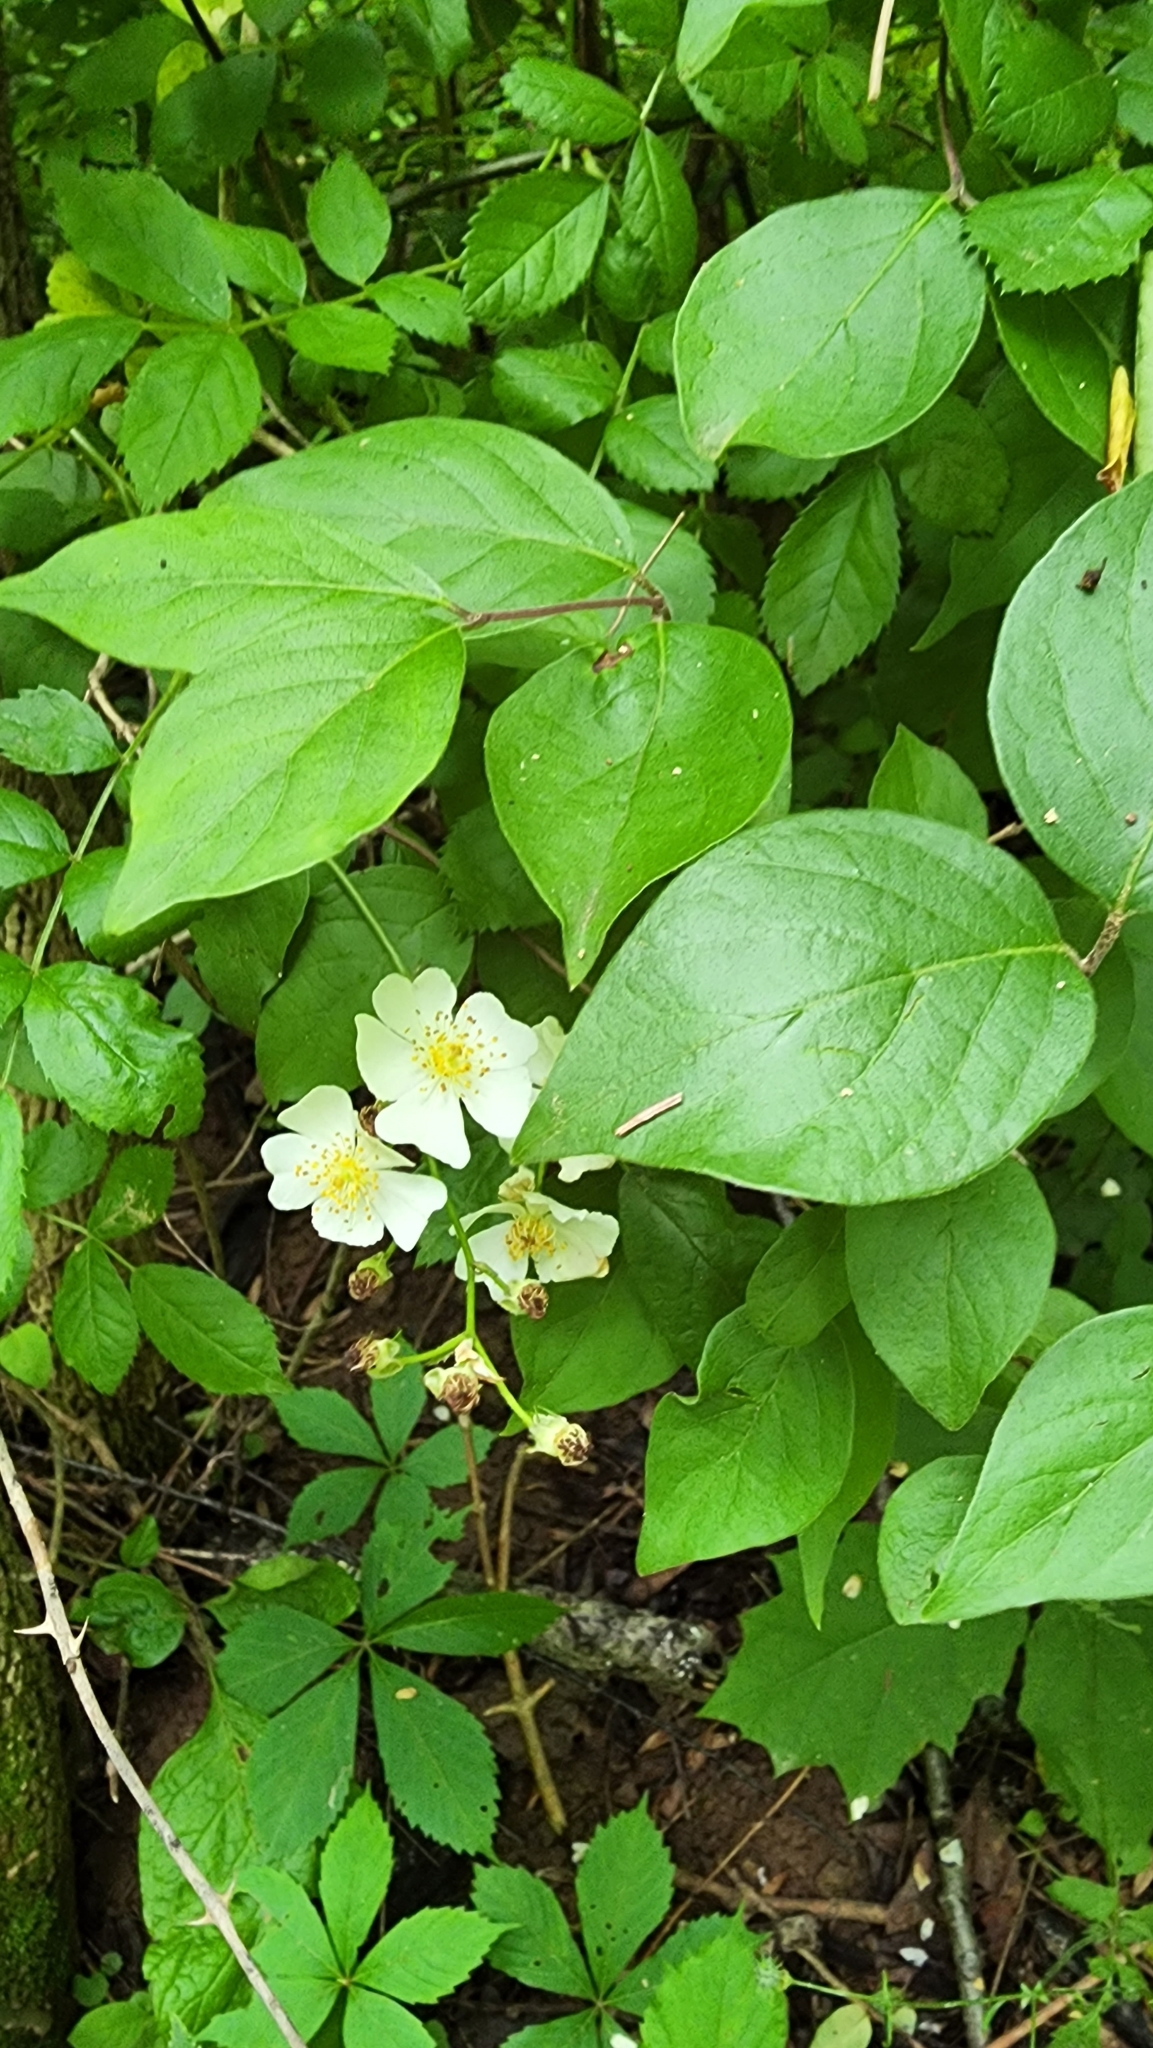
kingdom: Plantae
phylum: Tracheophyta
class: Magnoliopsida
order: Rosales
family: Rosaceae
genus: Rosa
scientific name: Rosa multiflora
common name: Multiflora rose
